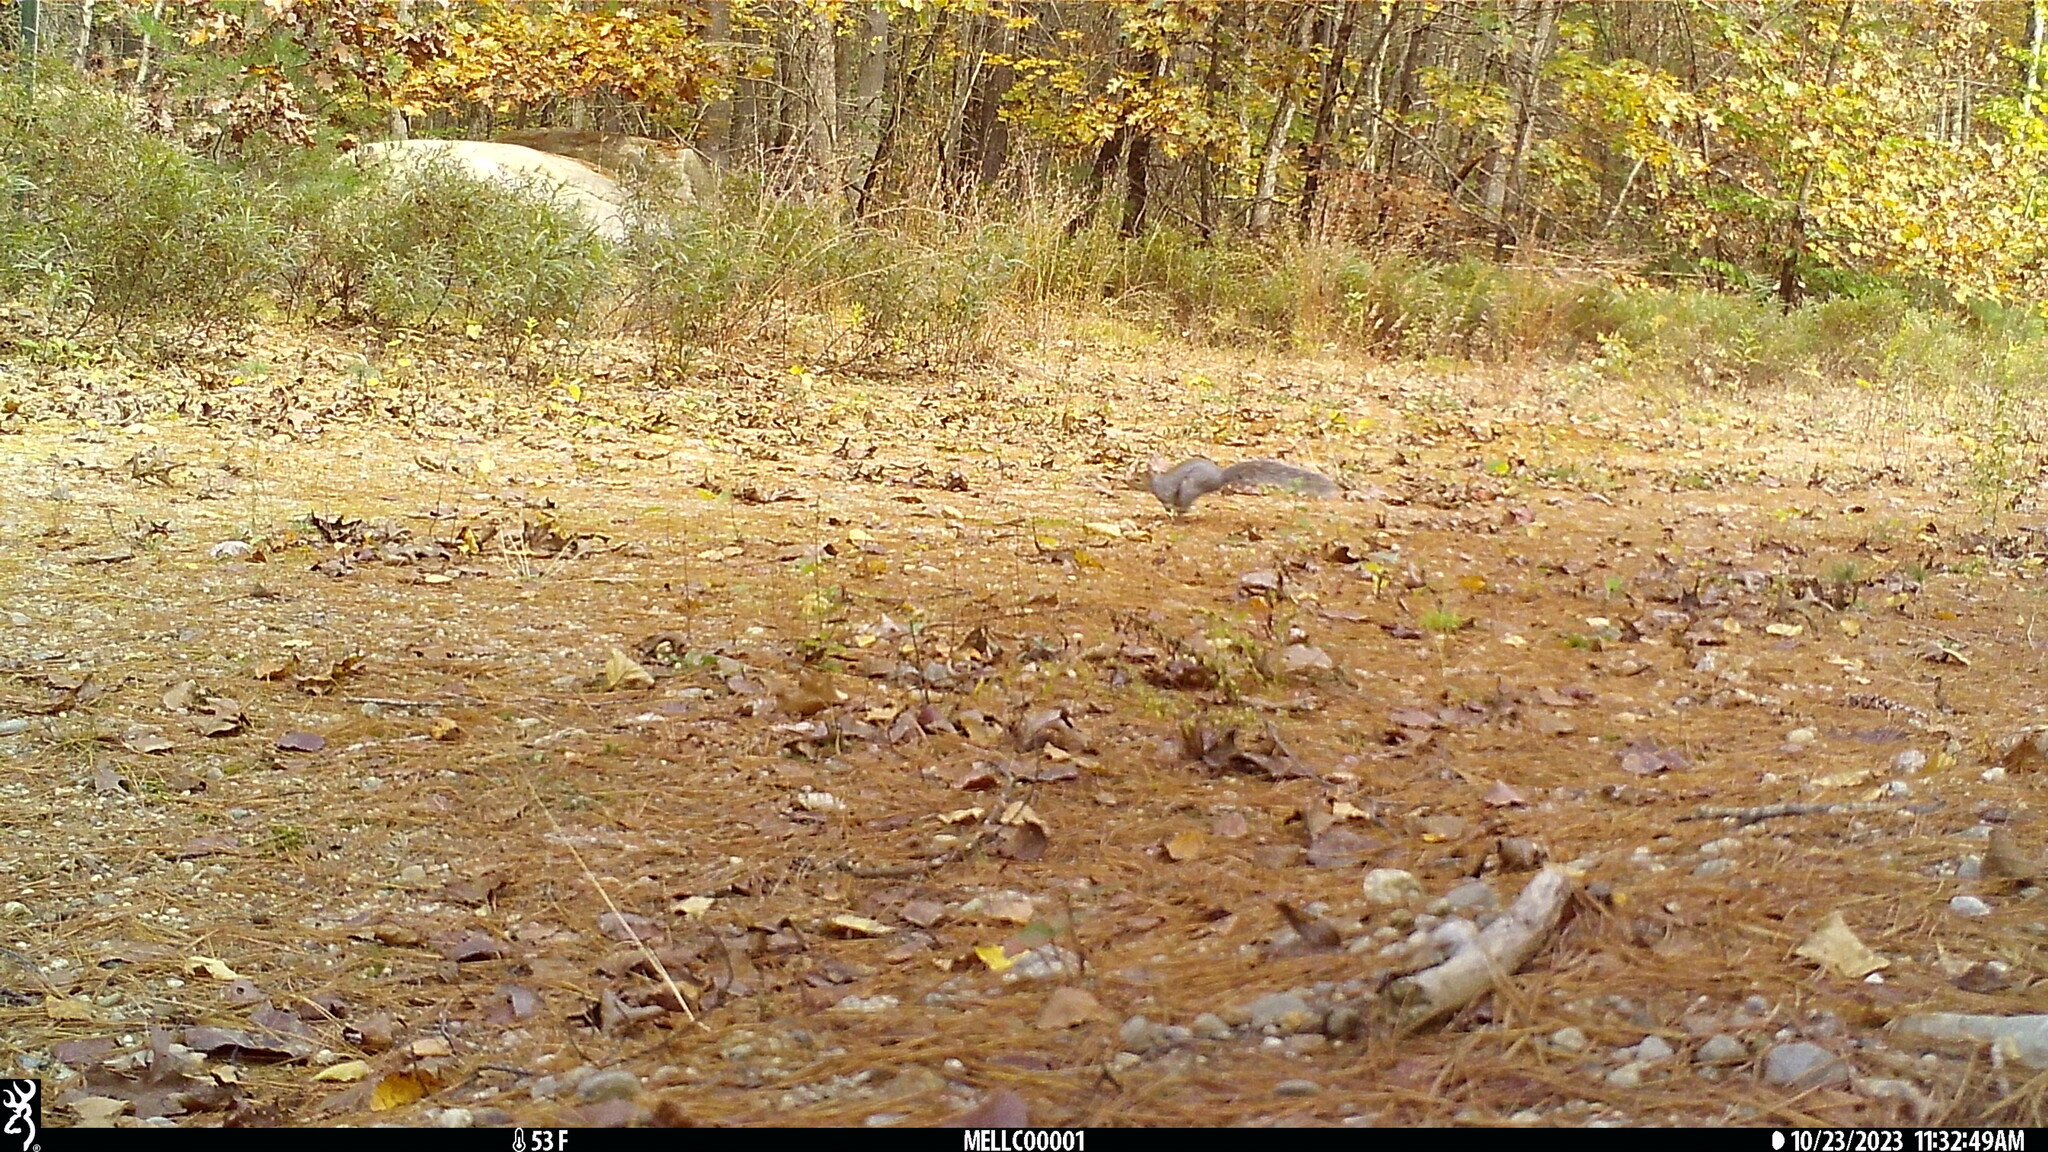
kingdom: Animalia
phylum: Chordata
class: Mammalia
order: Rodentia
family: Sciuridae
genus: Sciurus
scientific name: Sciurus carolinensis
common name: Eastern gray squirrel
